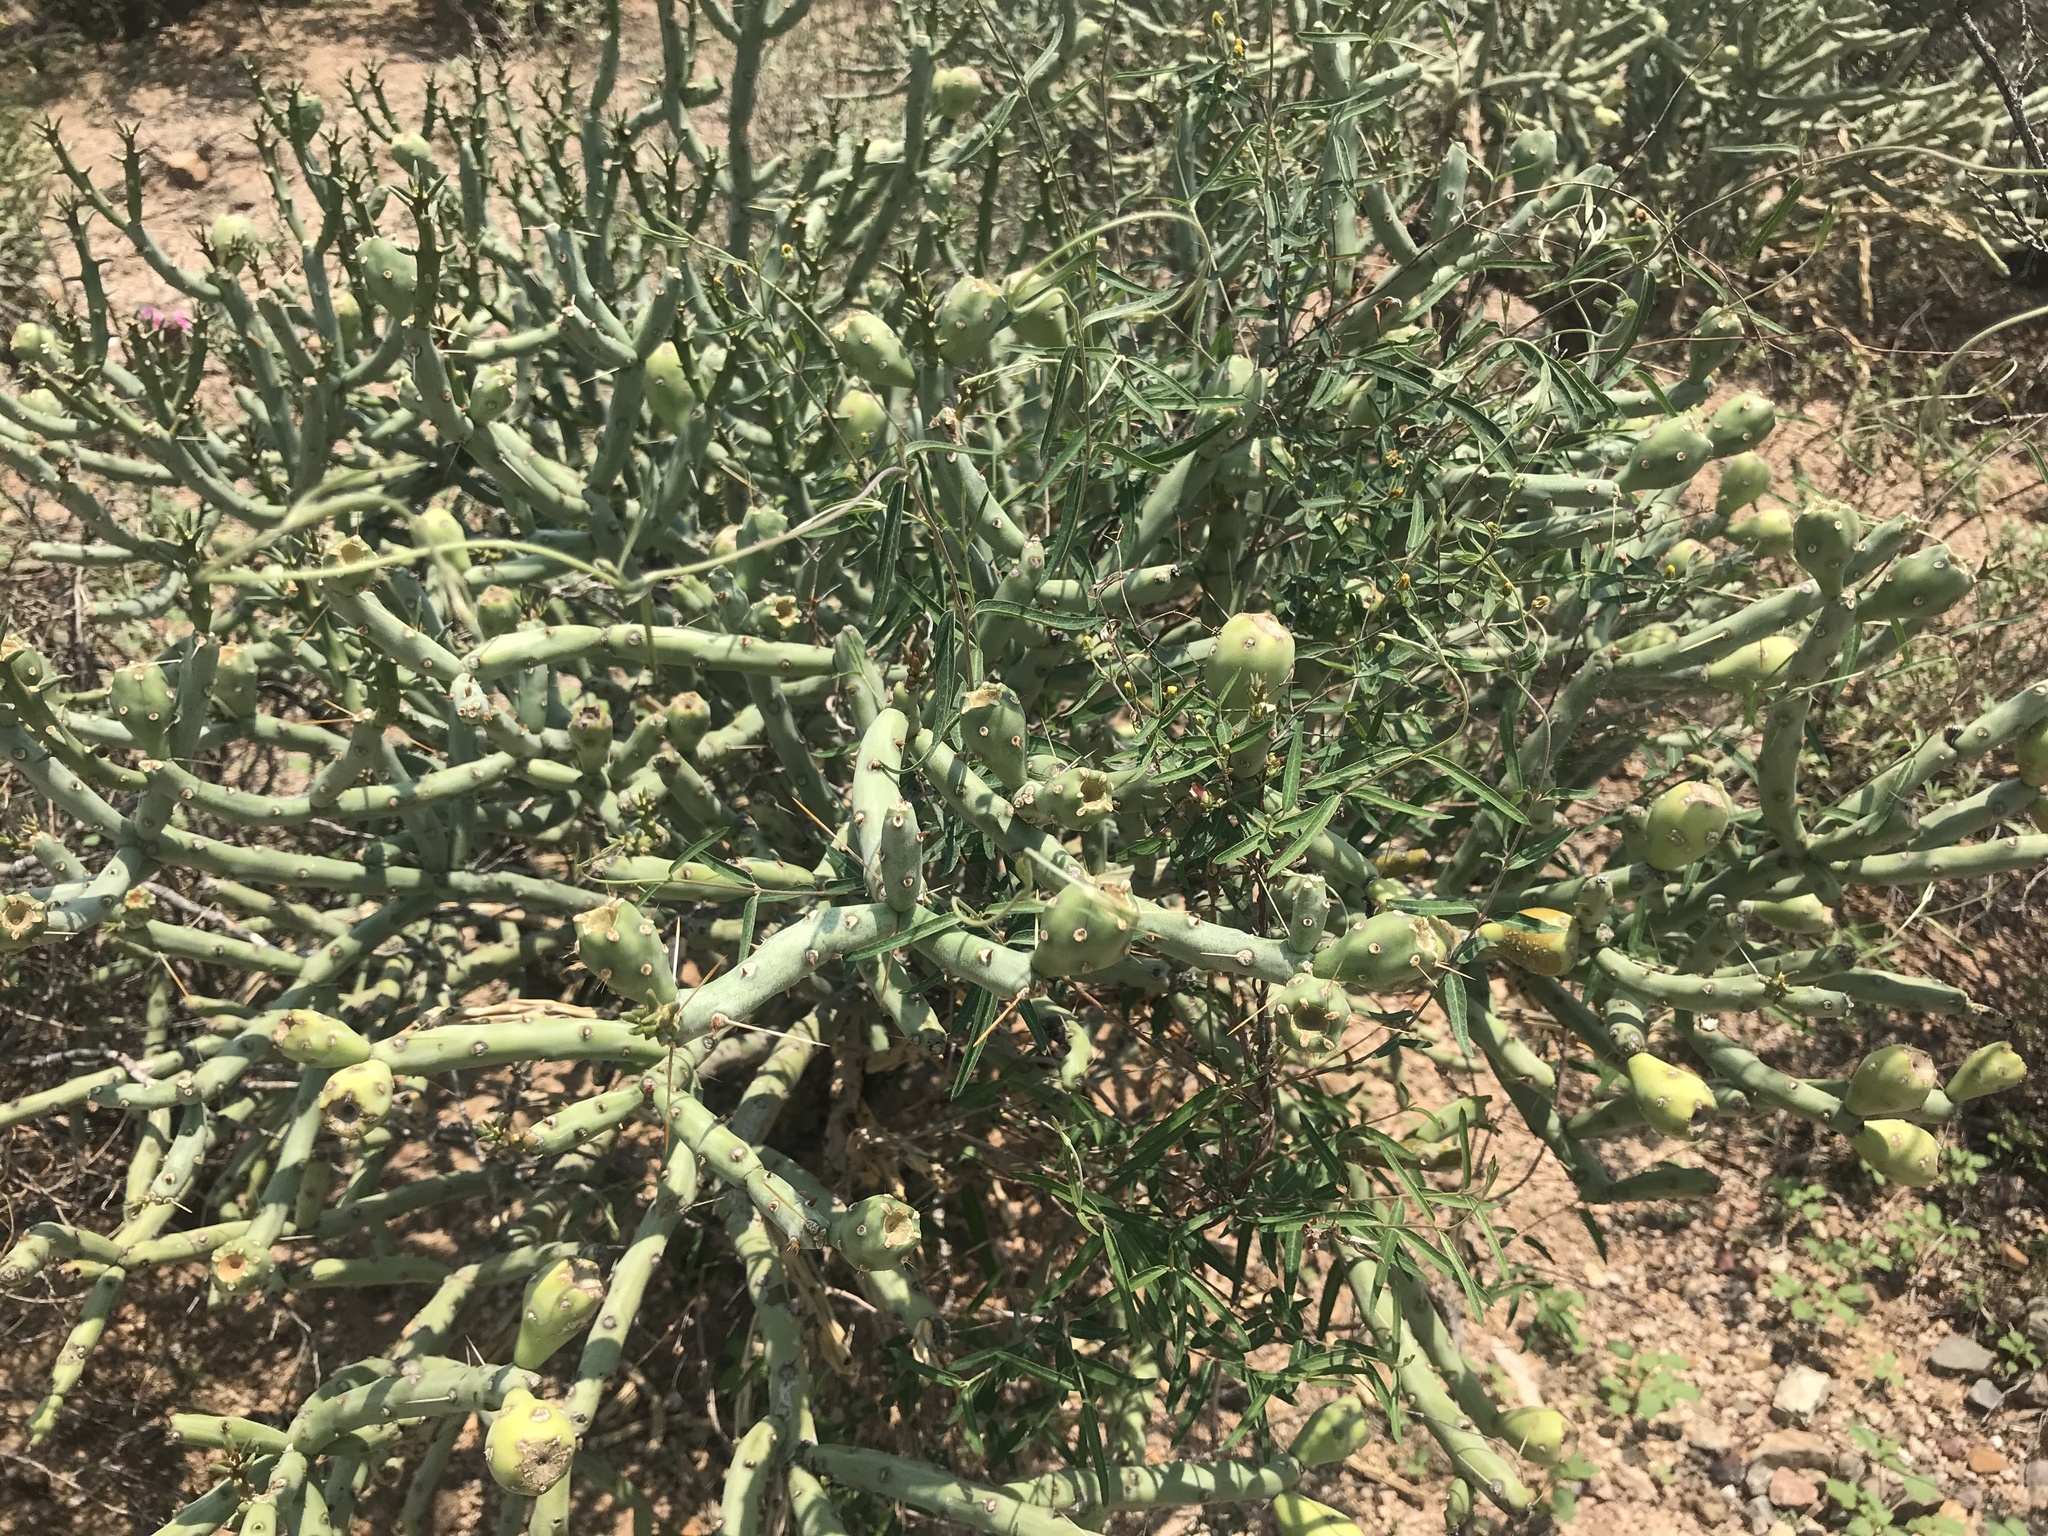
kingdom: Plantae
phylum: Tracheophyta
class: Magnoliopsida
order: Caryophyllales
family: Cactaceae
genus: Cylindropuntia
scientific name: Cylindropuntia arbuscula
